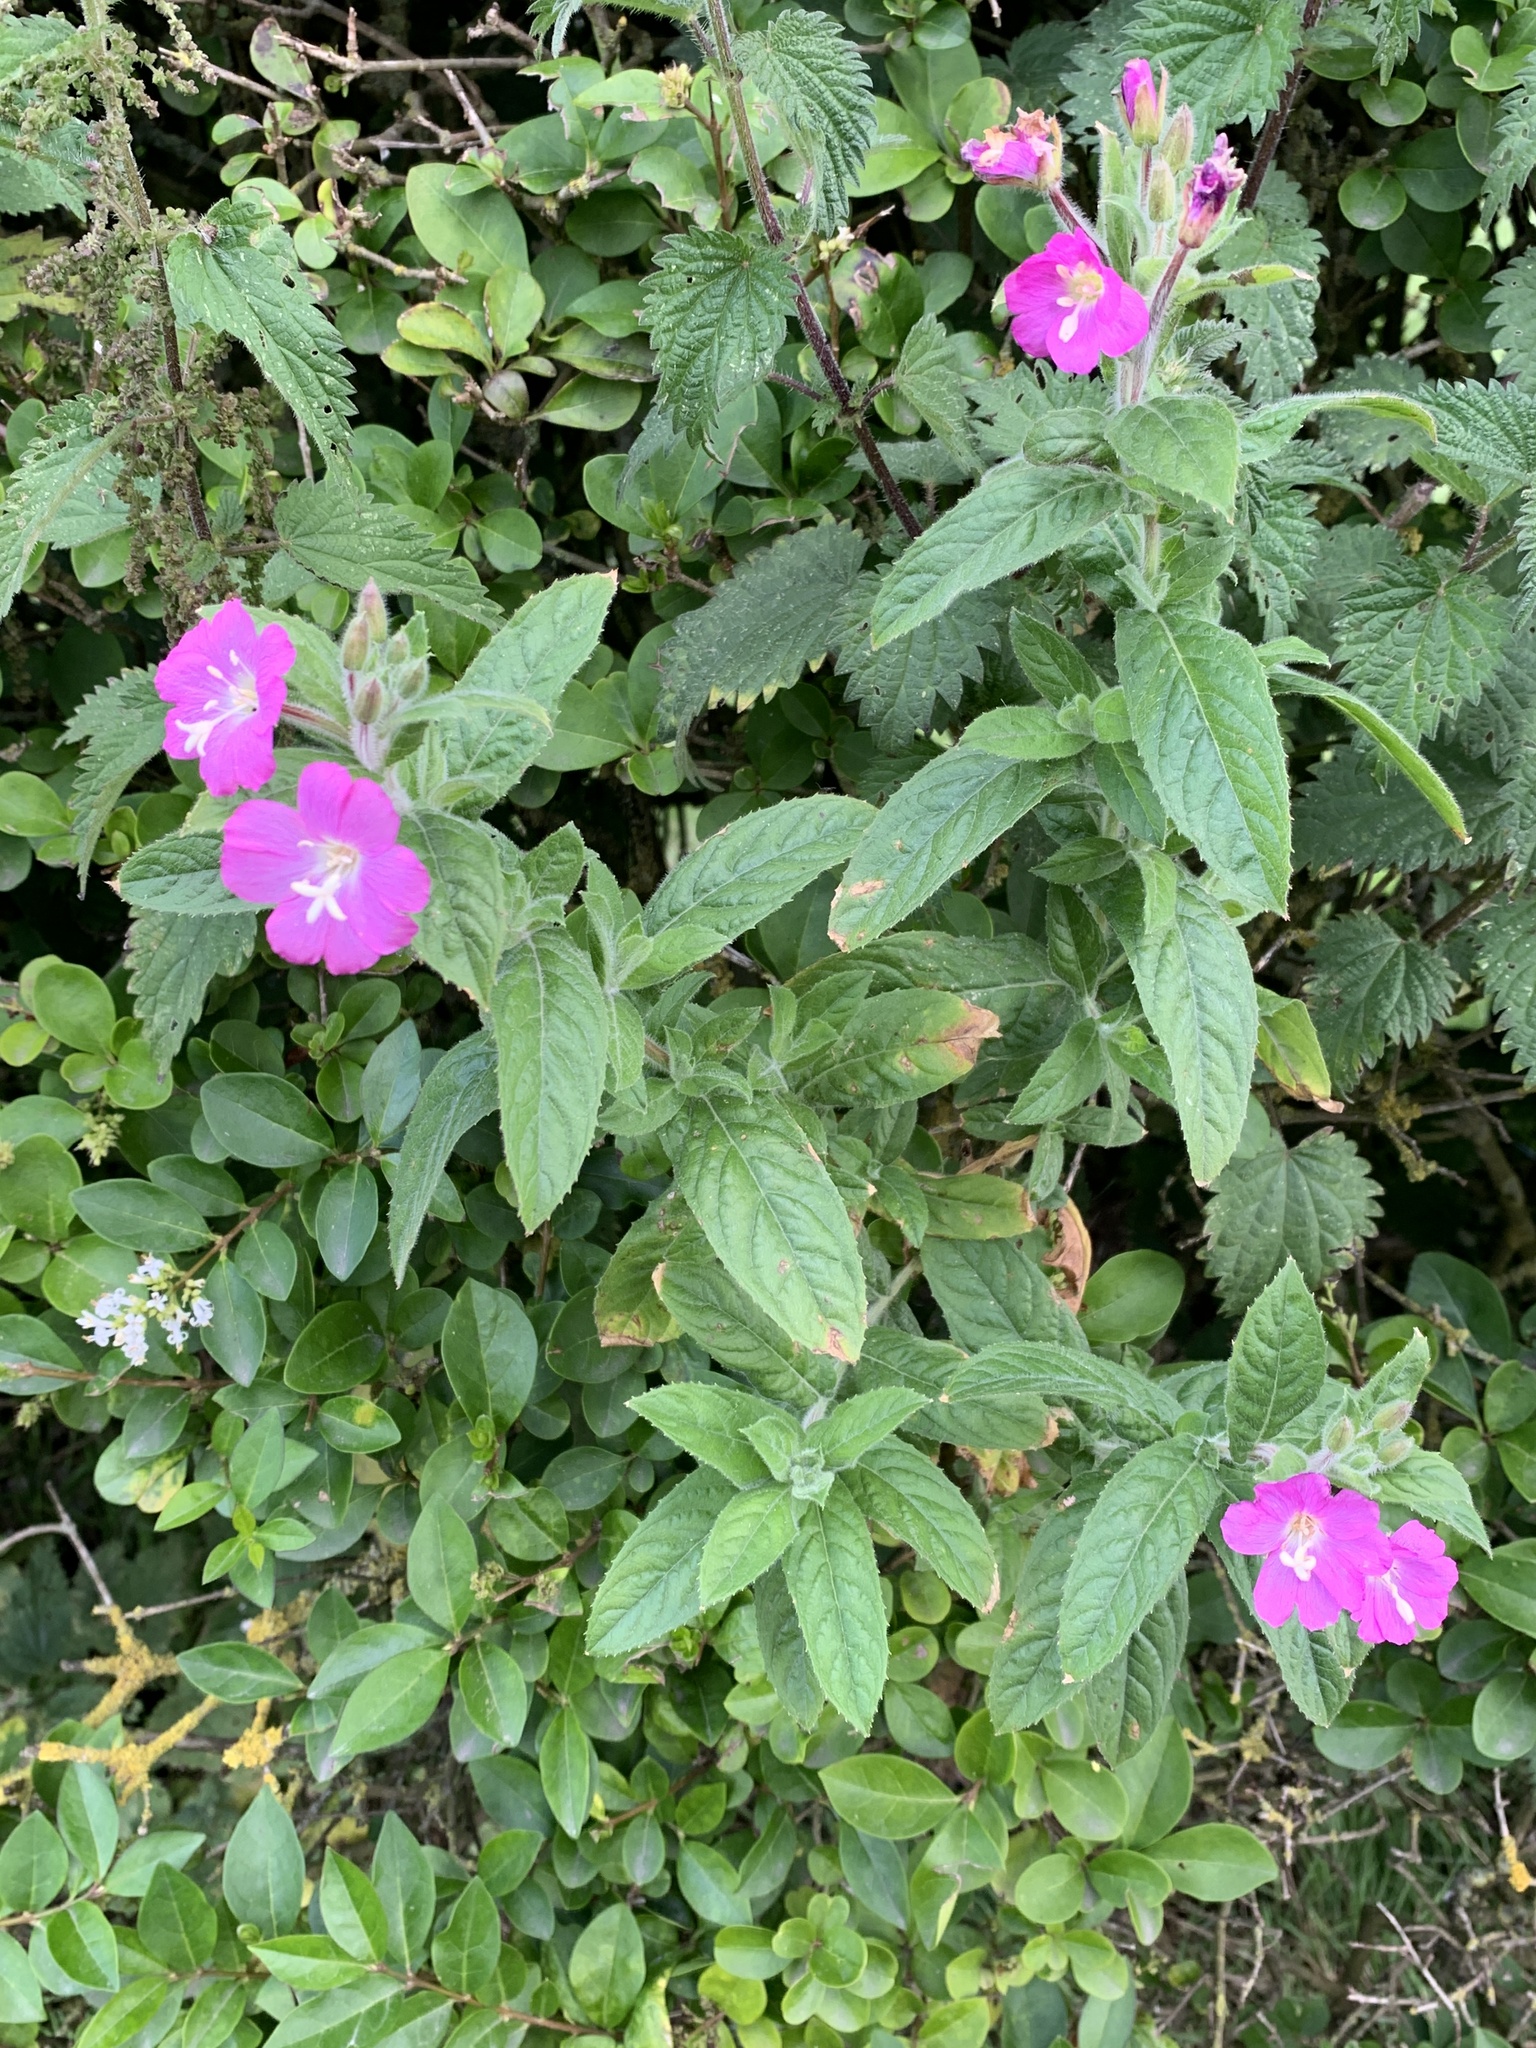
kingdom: Plantae
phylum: Tracheophyta
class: Magnoliopsida
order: Myrtales
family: Onagraceae
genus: Epilobium
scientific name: Epilobium hirsutum
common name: Great willowherb
